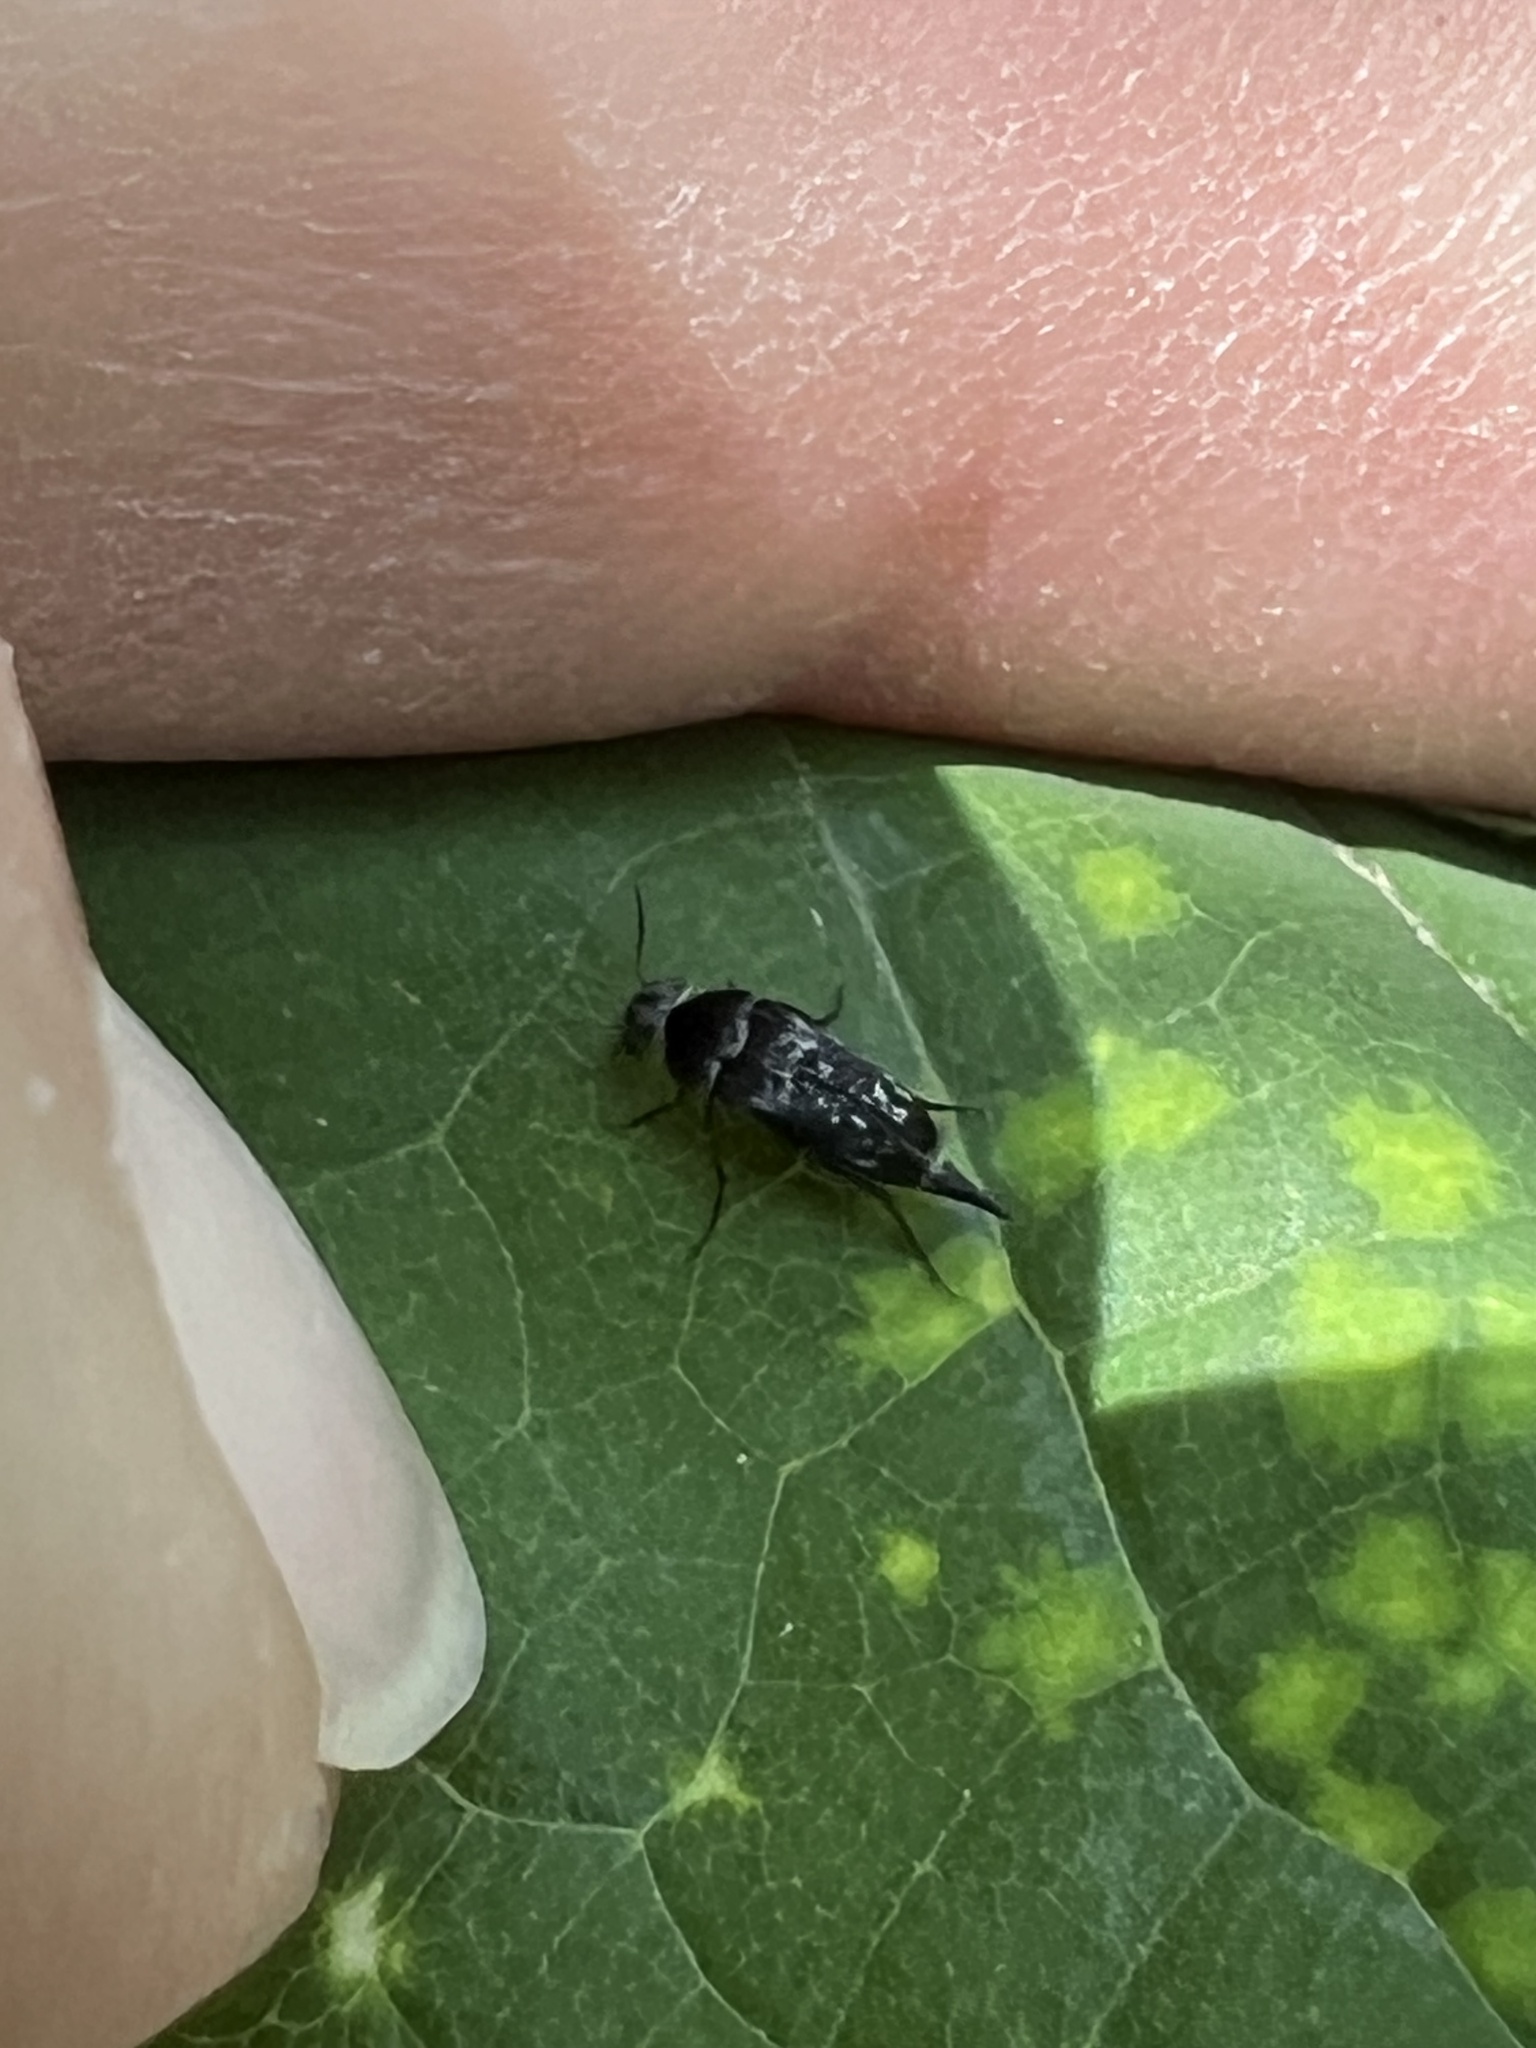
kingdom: Animalia
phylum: Arthropoda
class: Insecta
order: Coleoptera
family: Mordellidae
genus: Mordella
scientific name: Mordella marginata
